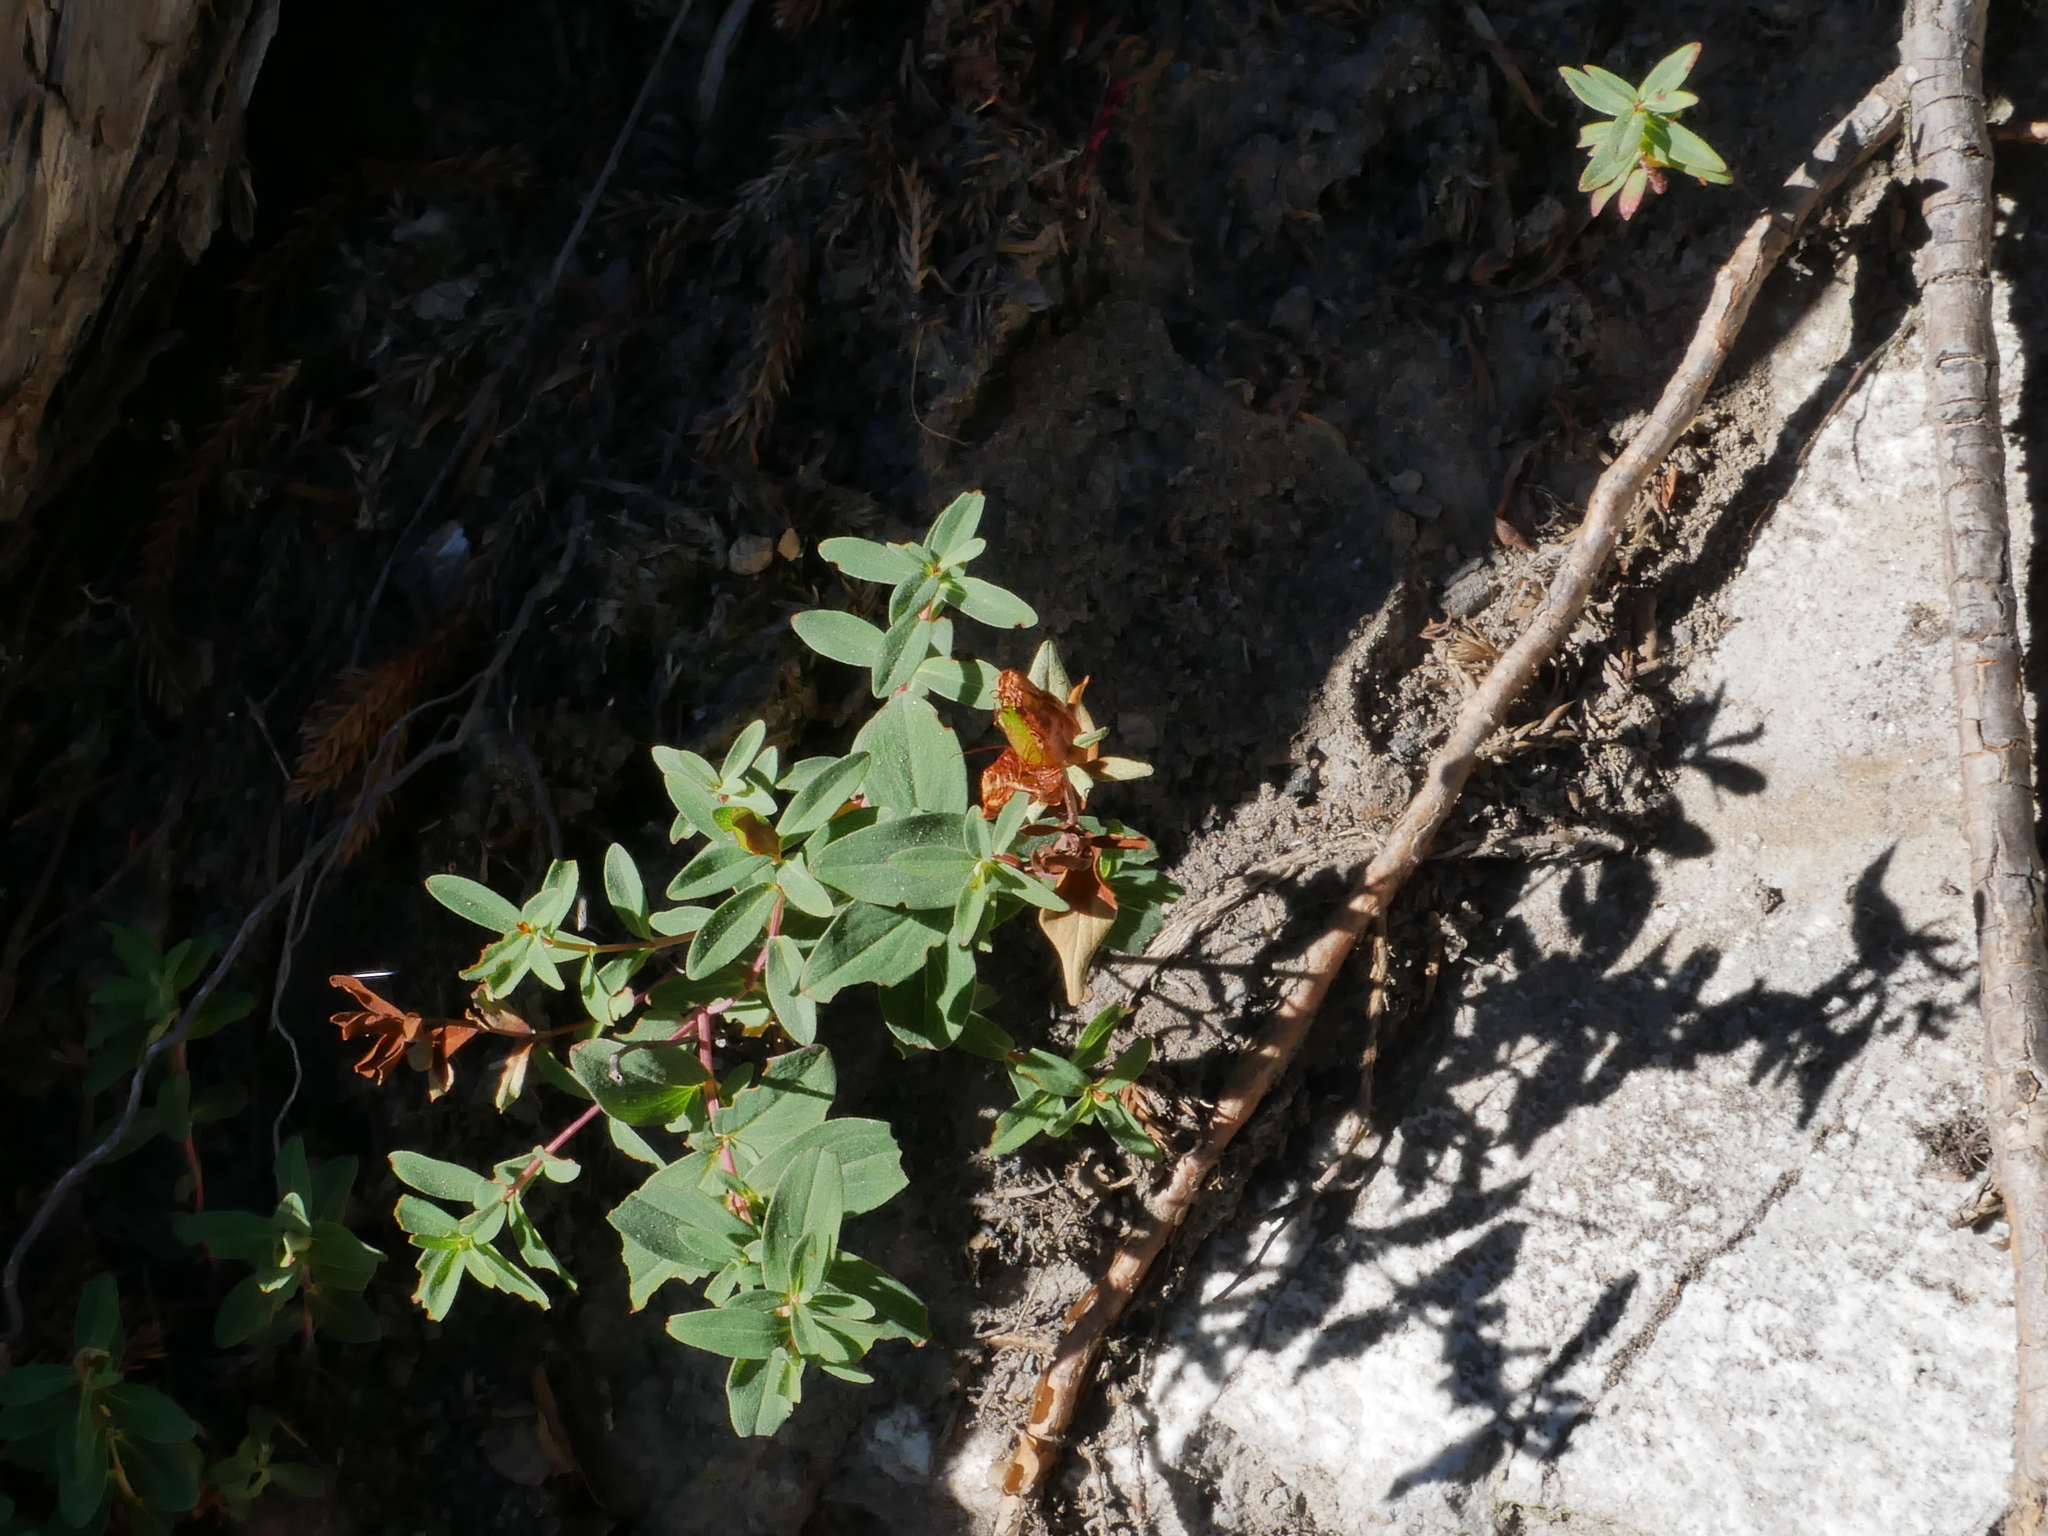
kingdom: Plantae
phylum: Tracheophyta
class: Magnoliopsida
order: Malpighiales
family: Hypericaceae
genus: Hypericum
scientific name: Hypericum nagasawae
